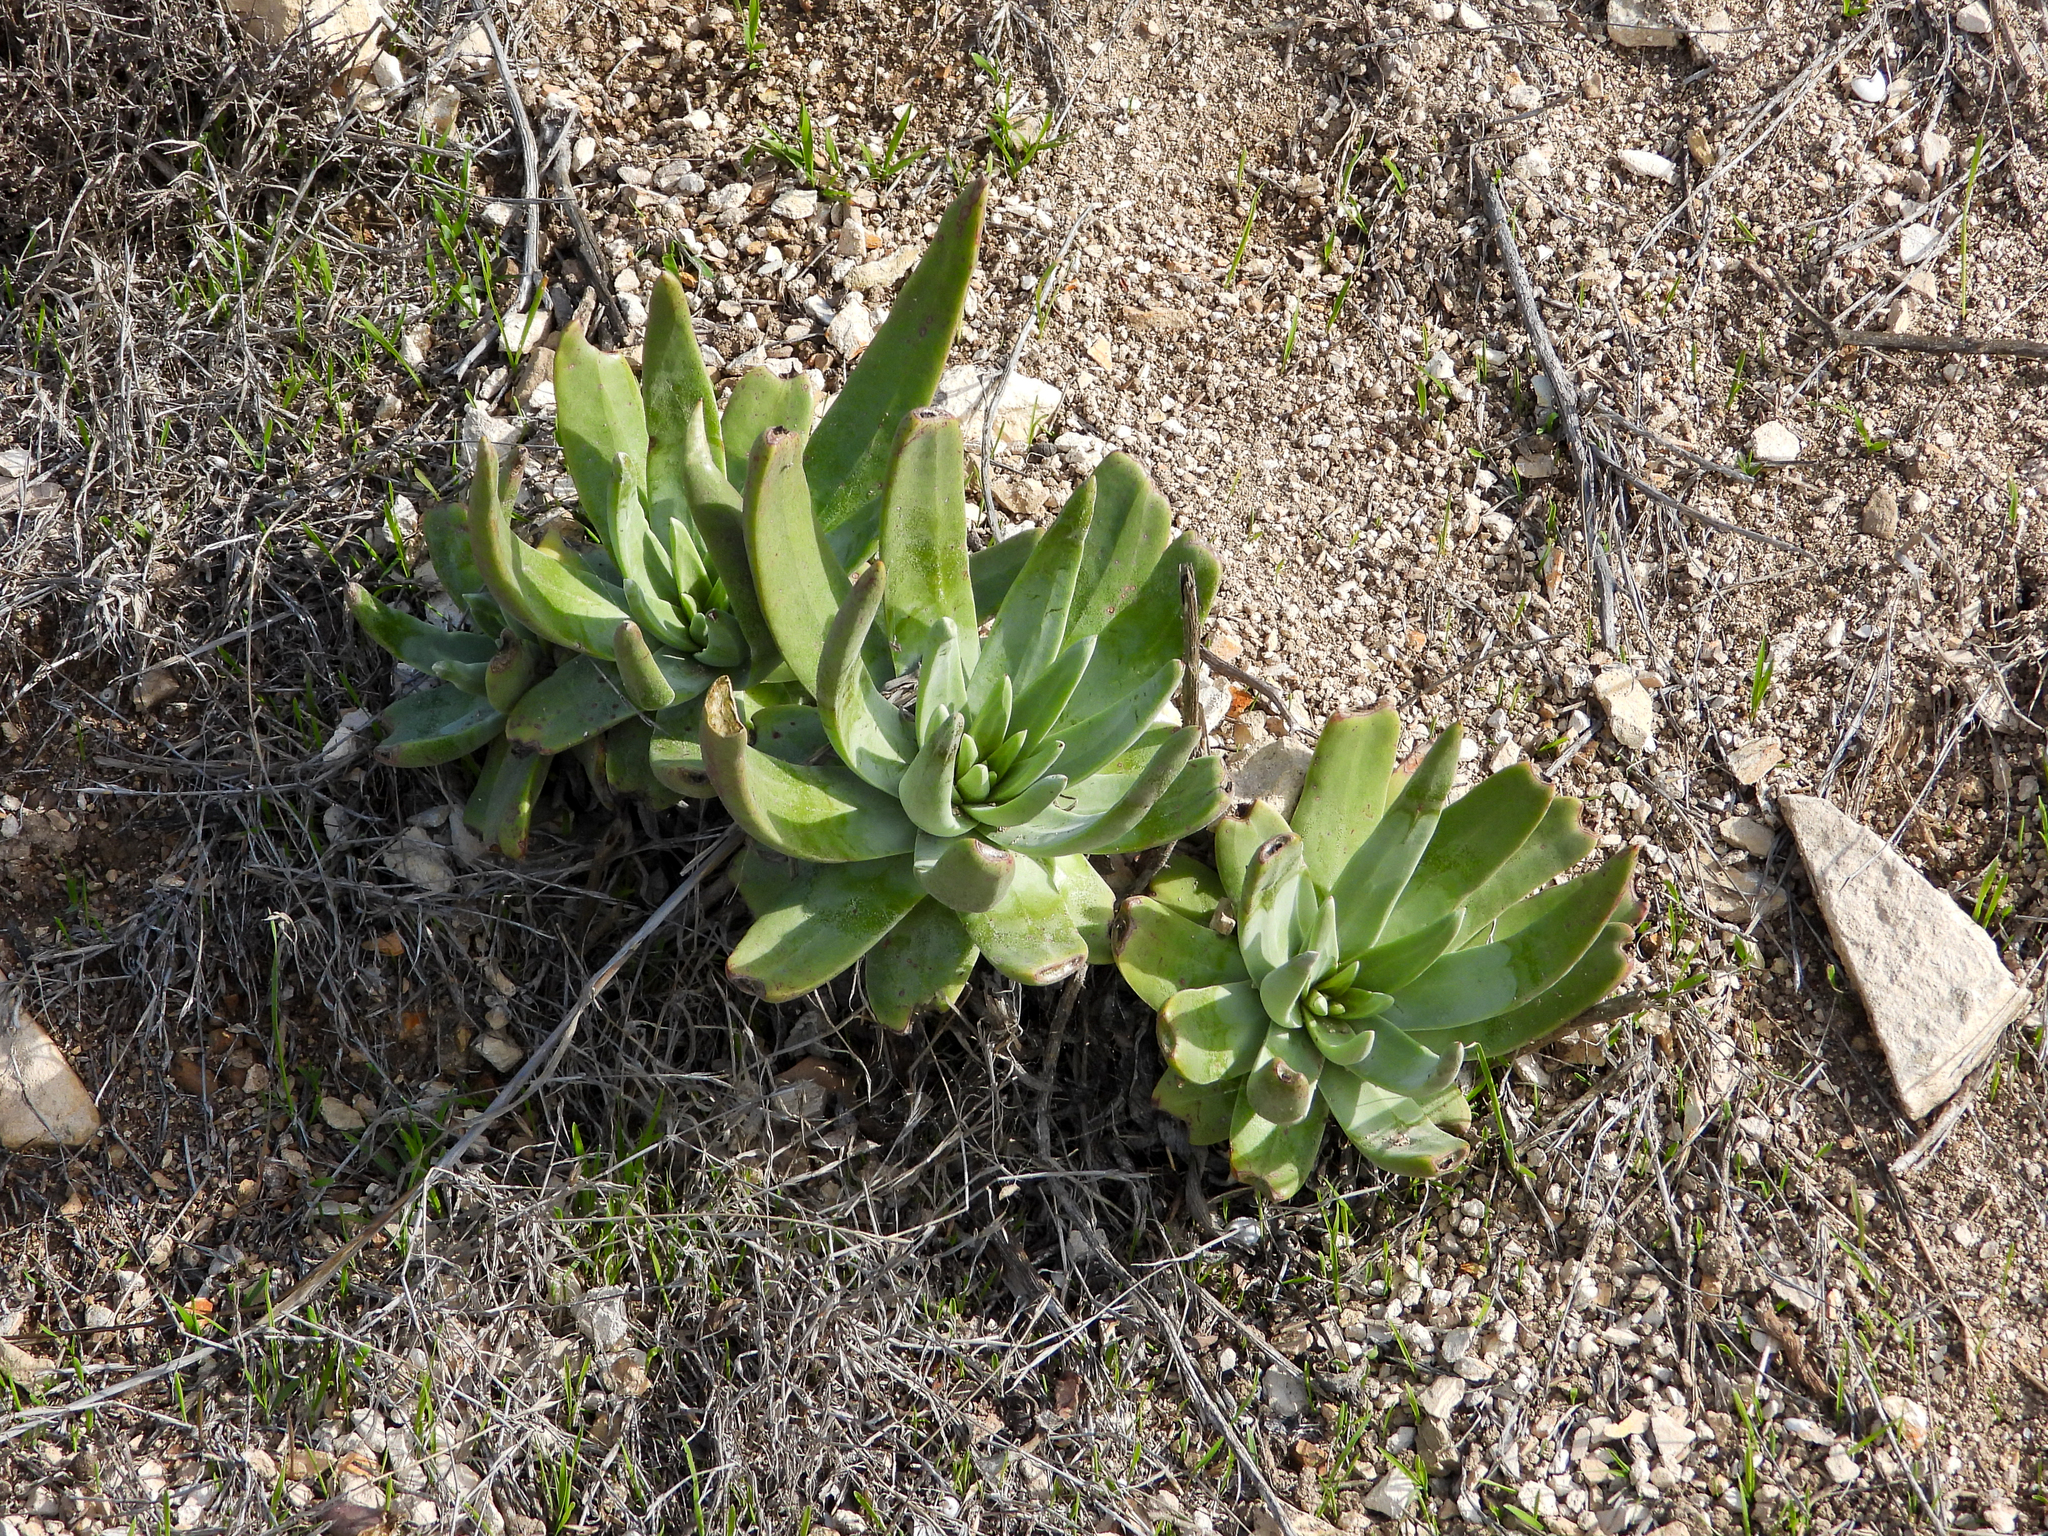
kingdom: Plantae
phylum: Tracheophyta
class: Magnoliopsida
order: Saxifragales
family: Crassulaceae
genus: Dudleya
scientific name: Dudleya virens
